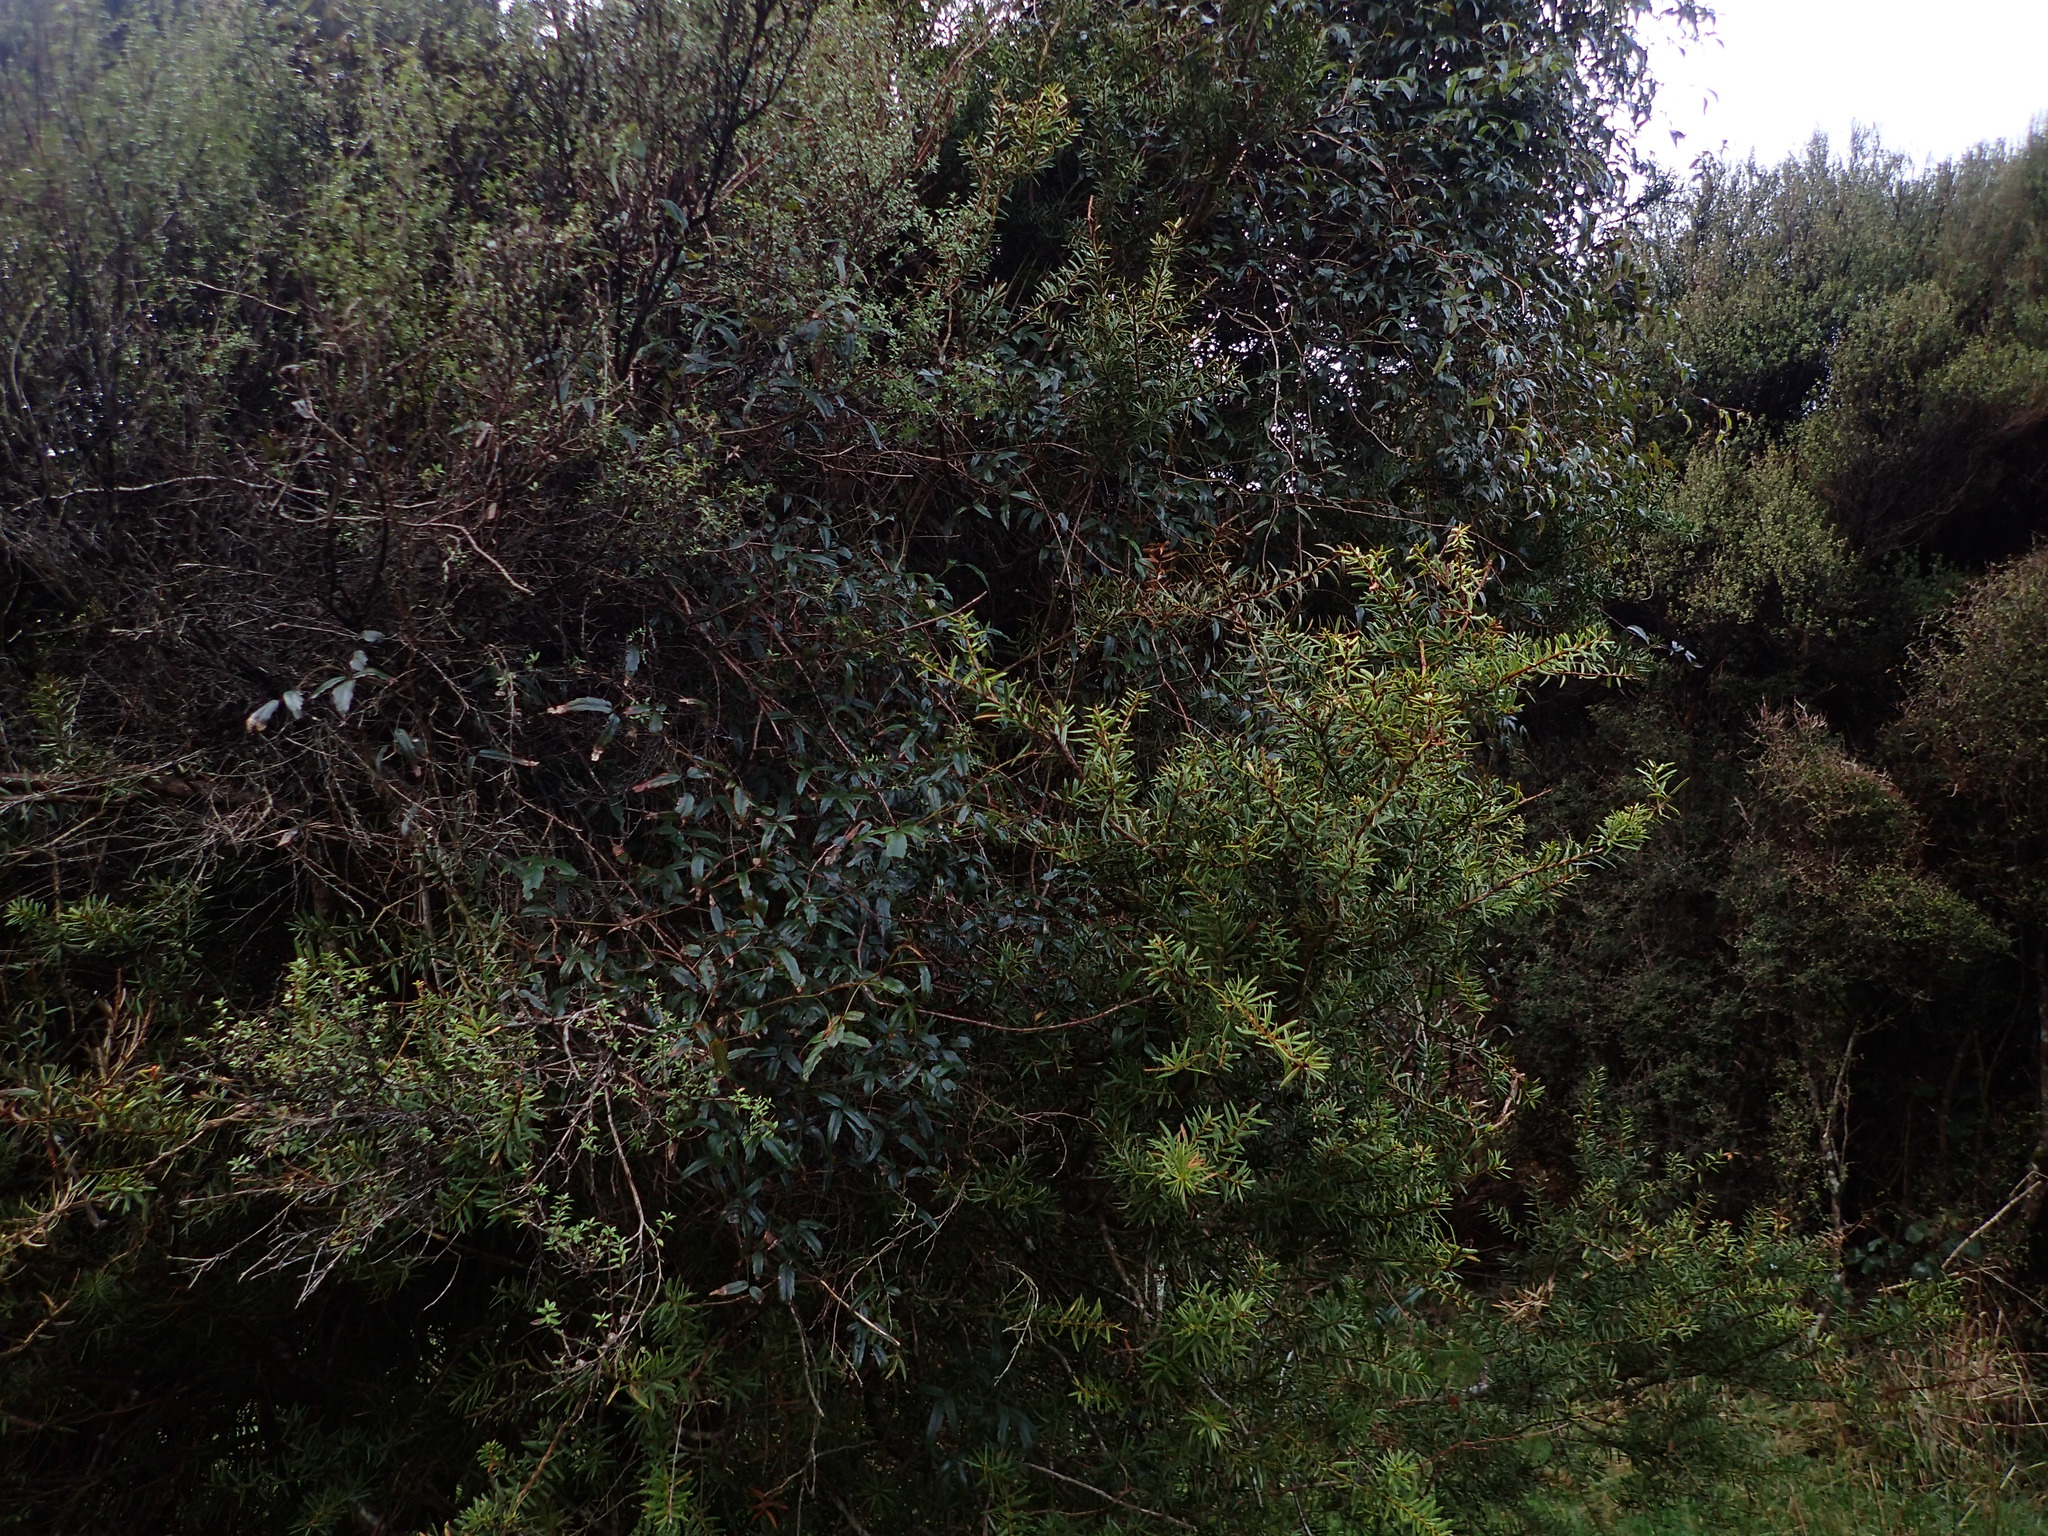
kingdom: Plantae
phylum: Tracheophyta
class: Magnoliopsida
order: Rosales
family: Rosaceae
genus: Rubus
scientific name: Rubus schmidelioides
